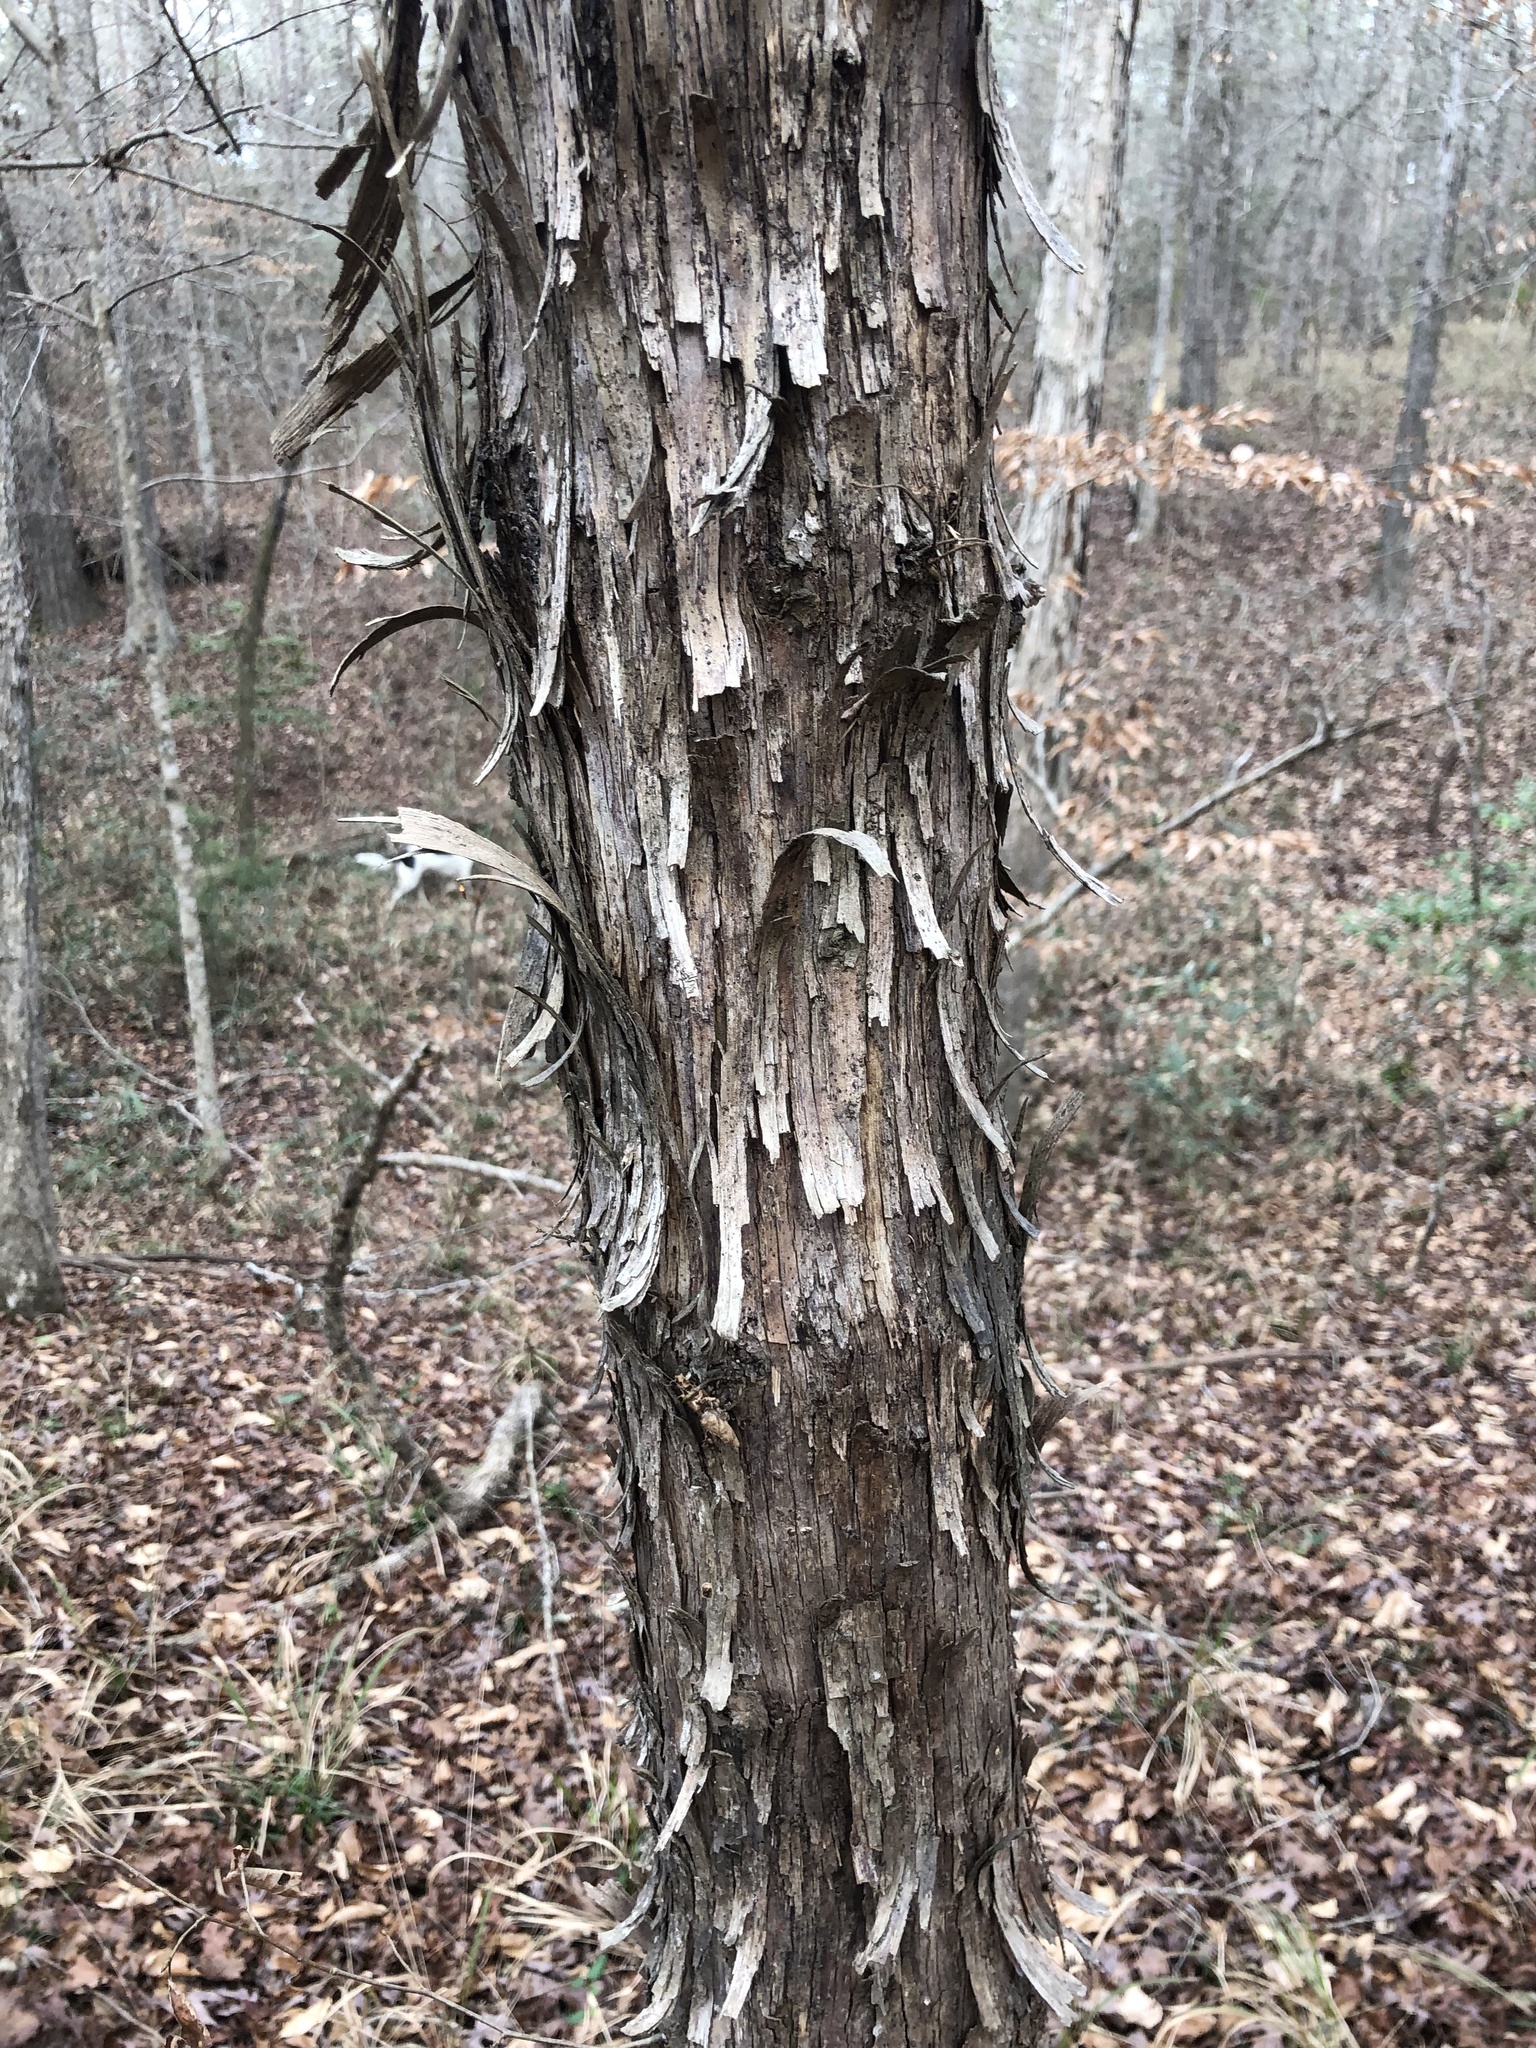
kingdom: Plantae
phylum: Tracheophyta
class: Magnoliopsida
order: Fagales
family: Betulaceae
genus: Ostrya
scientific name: Ostrya virginiana
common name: Ironwood
